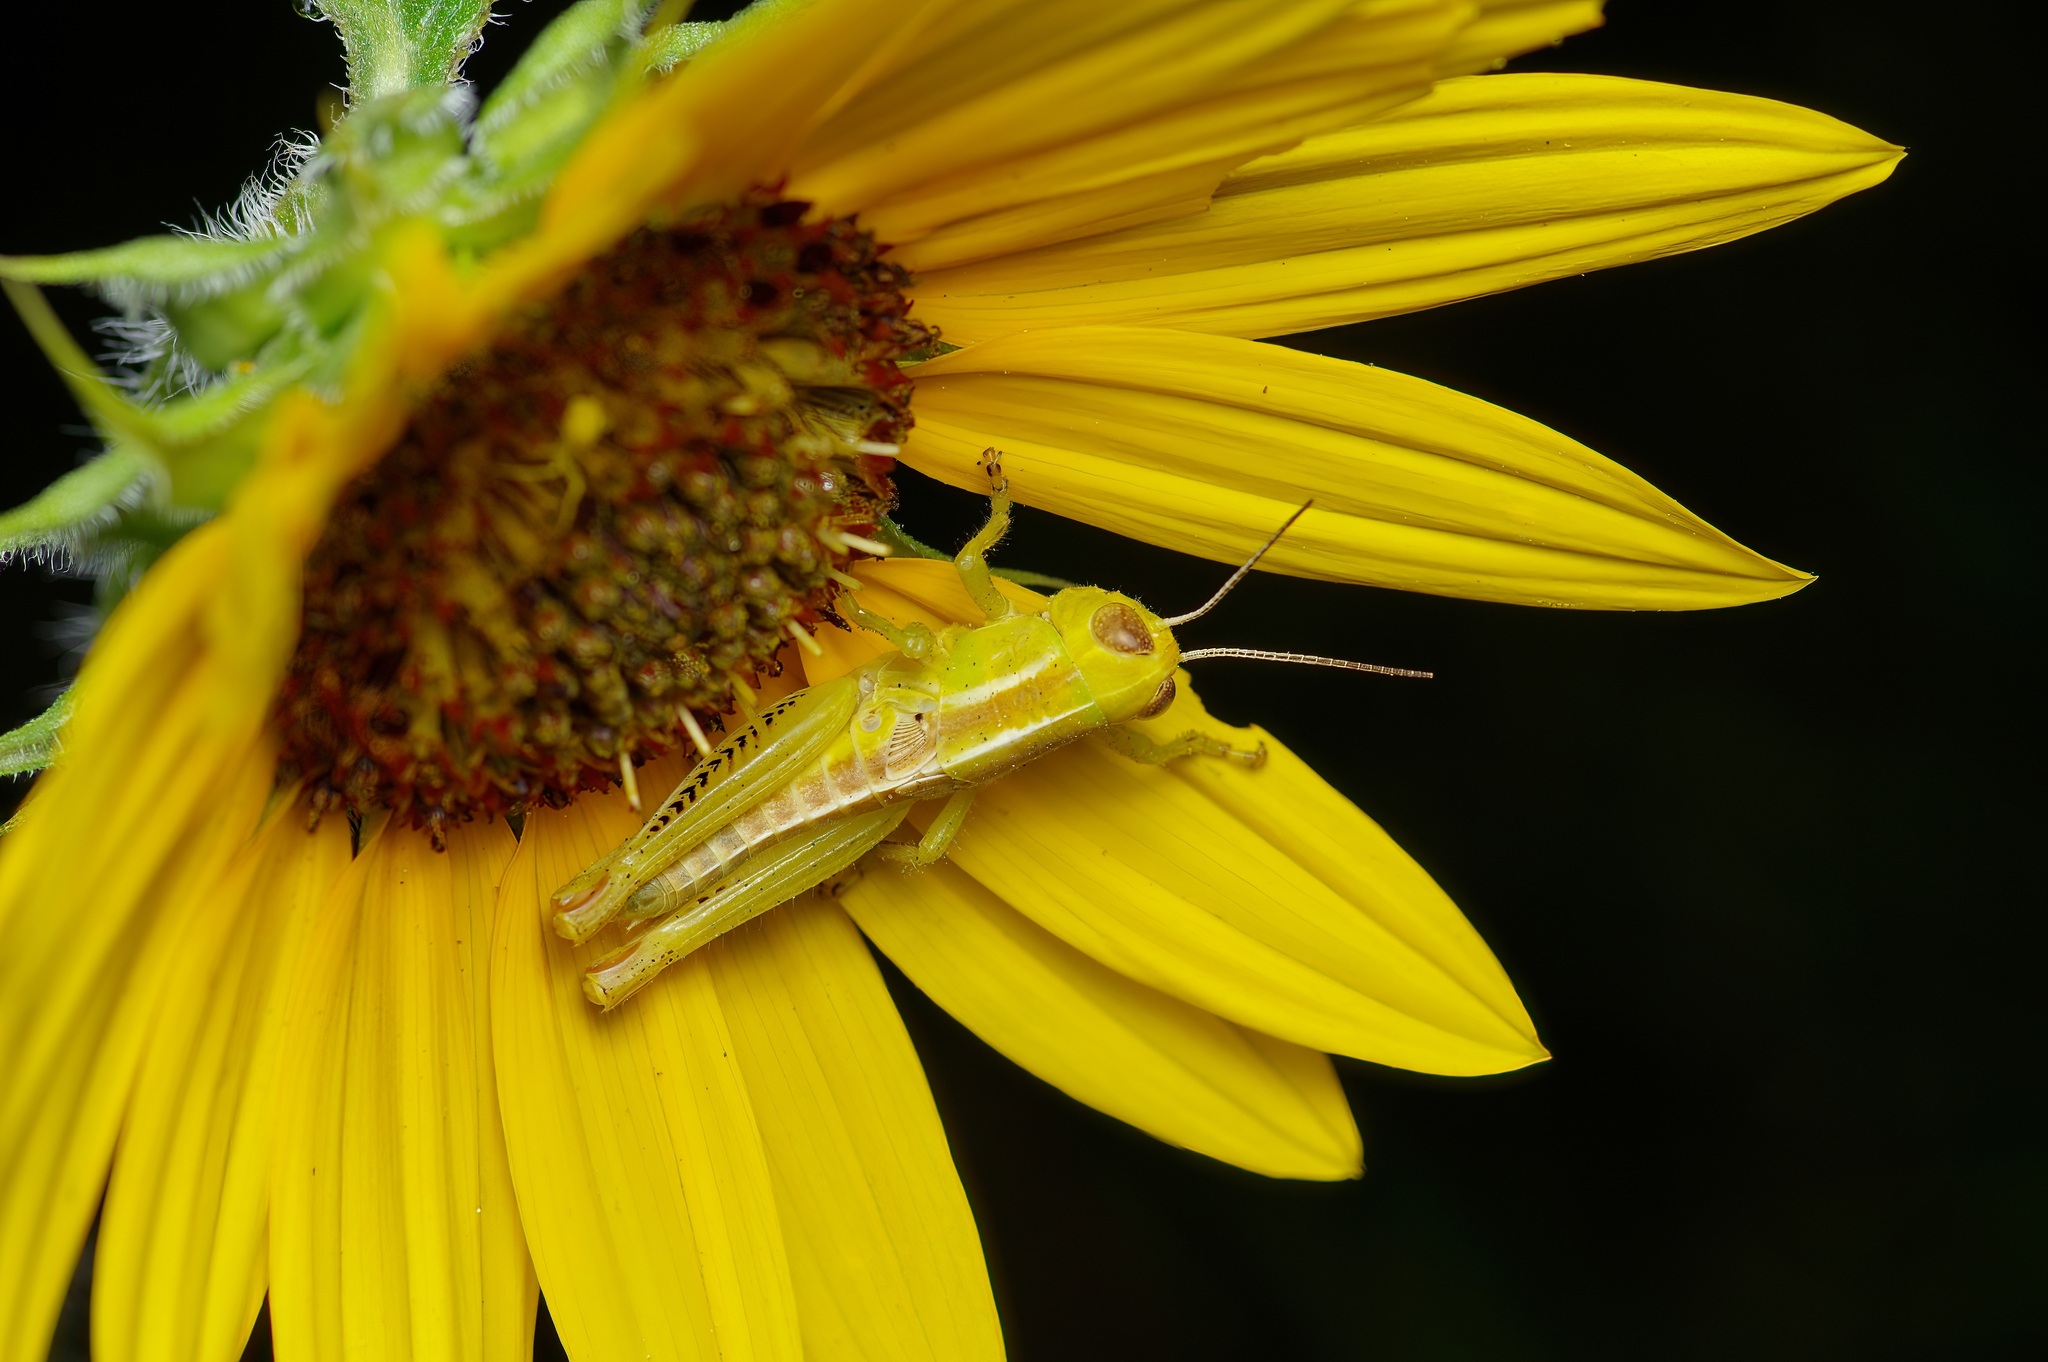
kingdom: Animalia
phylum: Arthropoda
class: Insecta
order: Orthoptera
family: Acrididae
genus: Melanoplus
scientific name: Melanoplus differentialis
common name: Differential grasshopper
